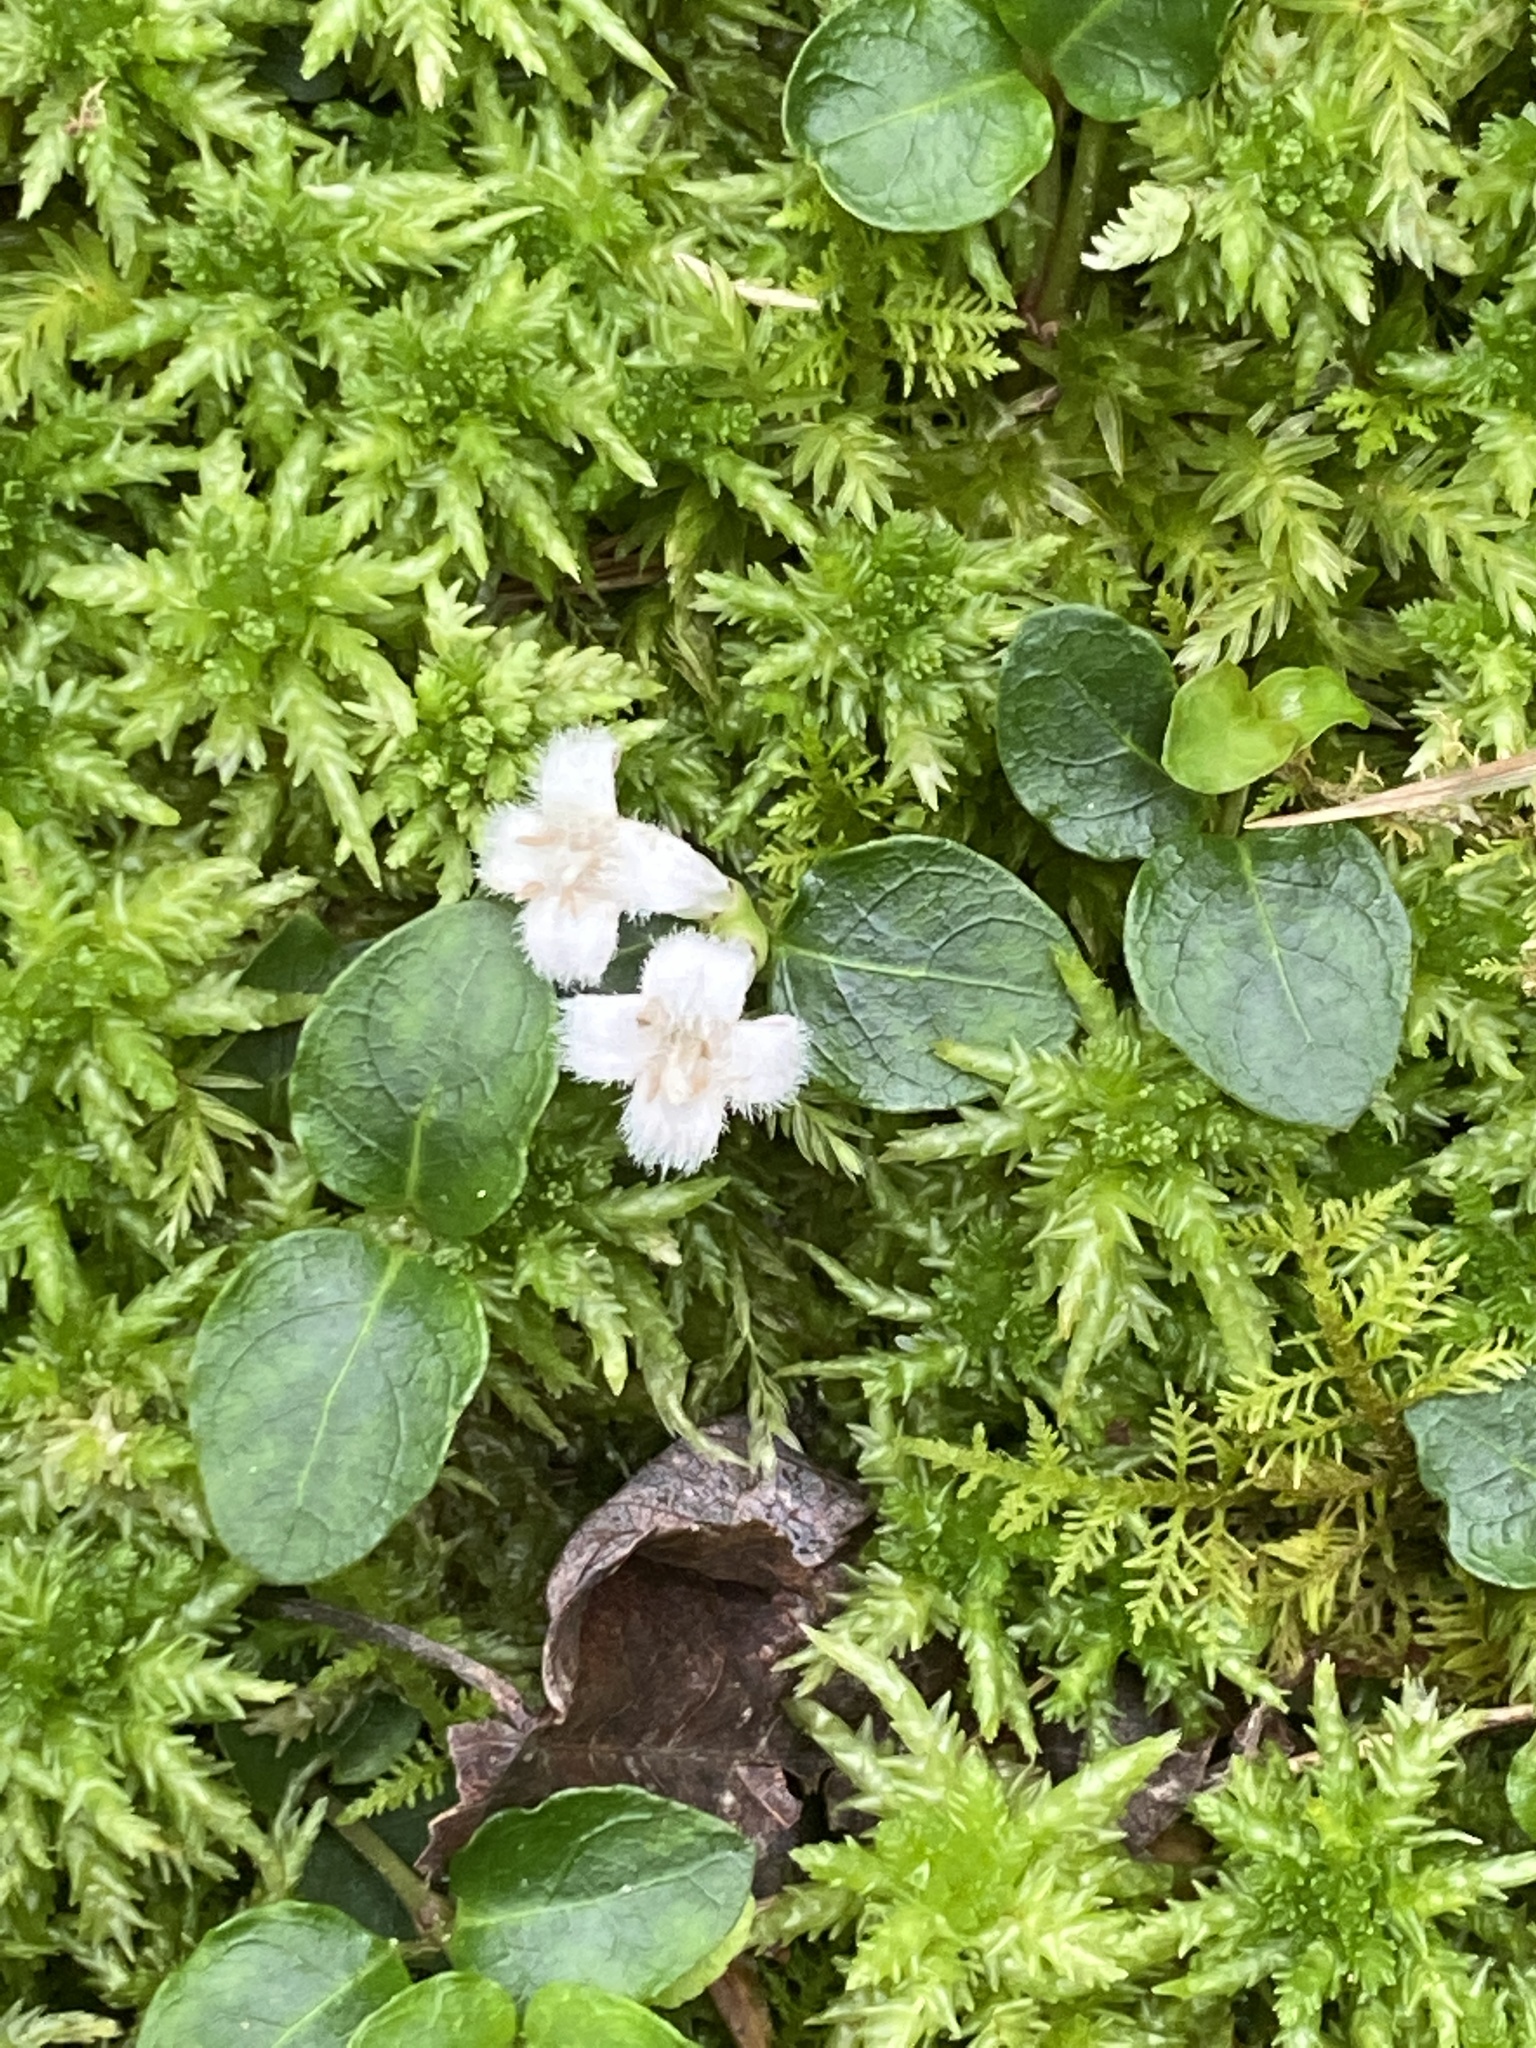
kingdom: Plantae
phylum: Tracheophyta
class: Magnoliopsida
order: Gentianales
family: Rubiaceae
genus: Mitchella
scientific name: Mitchella repens
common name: Partridge-berry
